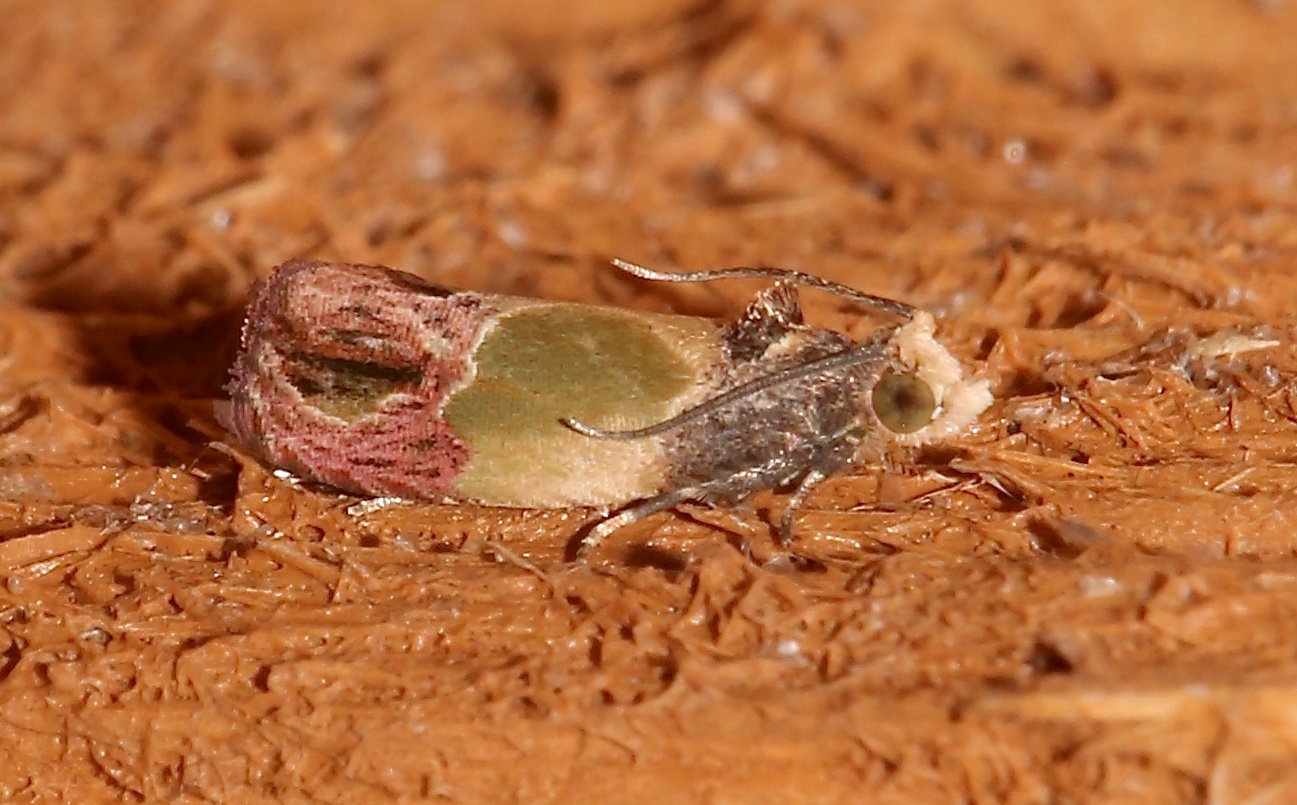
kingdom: Animalia
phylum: Arthropoda
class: Insecta
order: Lepidoptera
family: Tortricidae
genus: Eumarozia
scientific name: Eumarozia malachitana
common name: Sculptured moth
